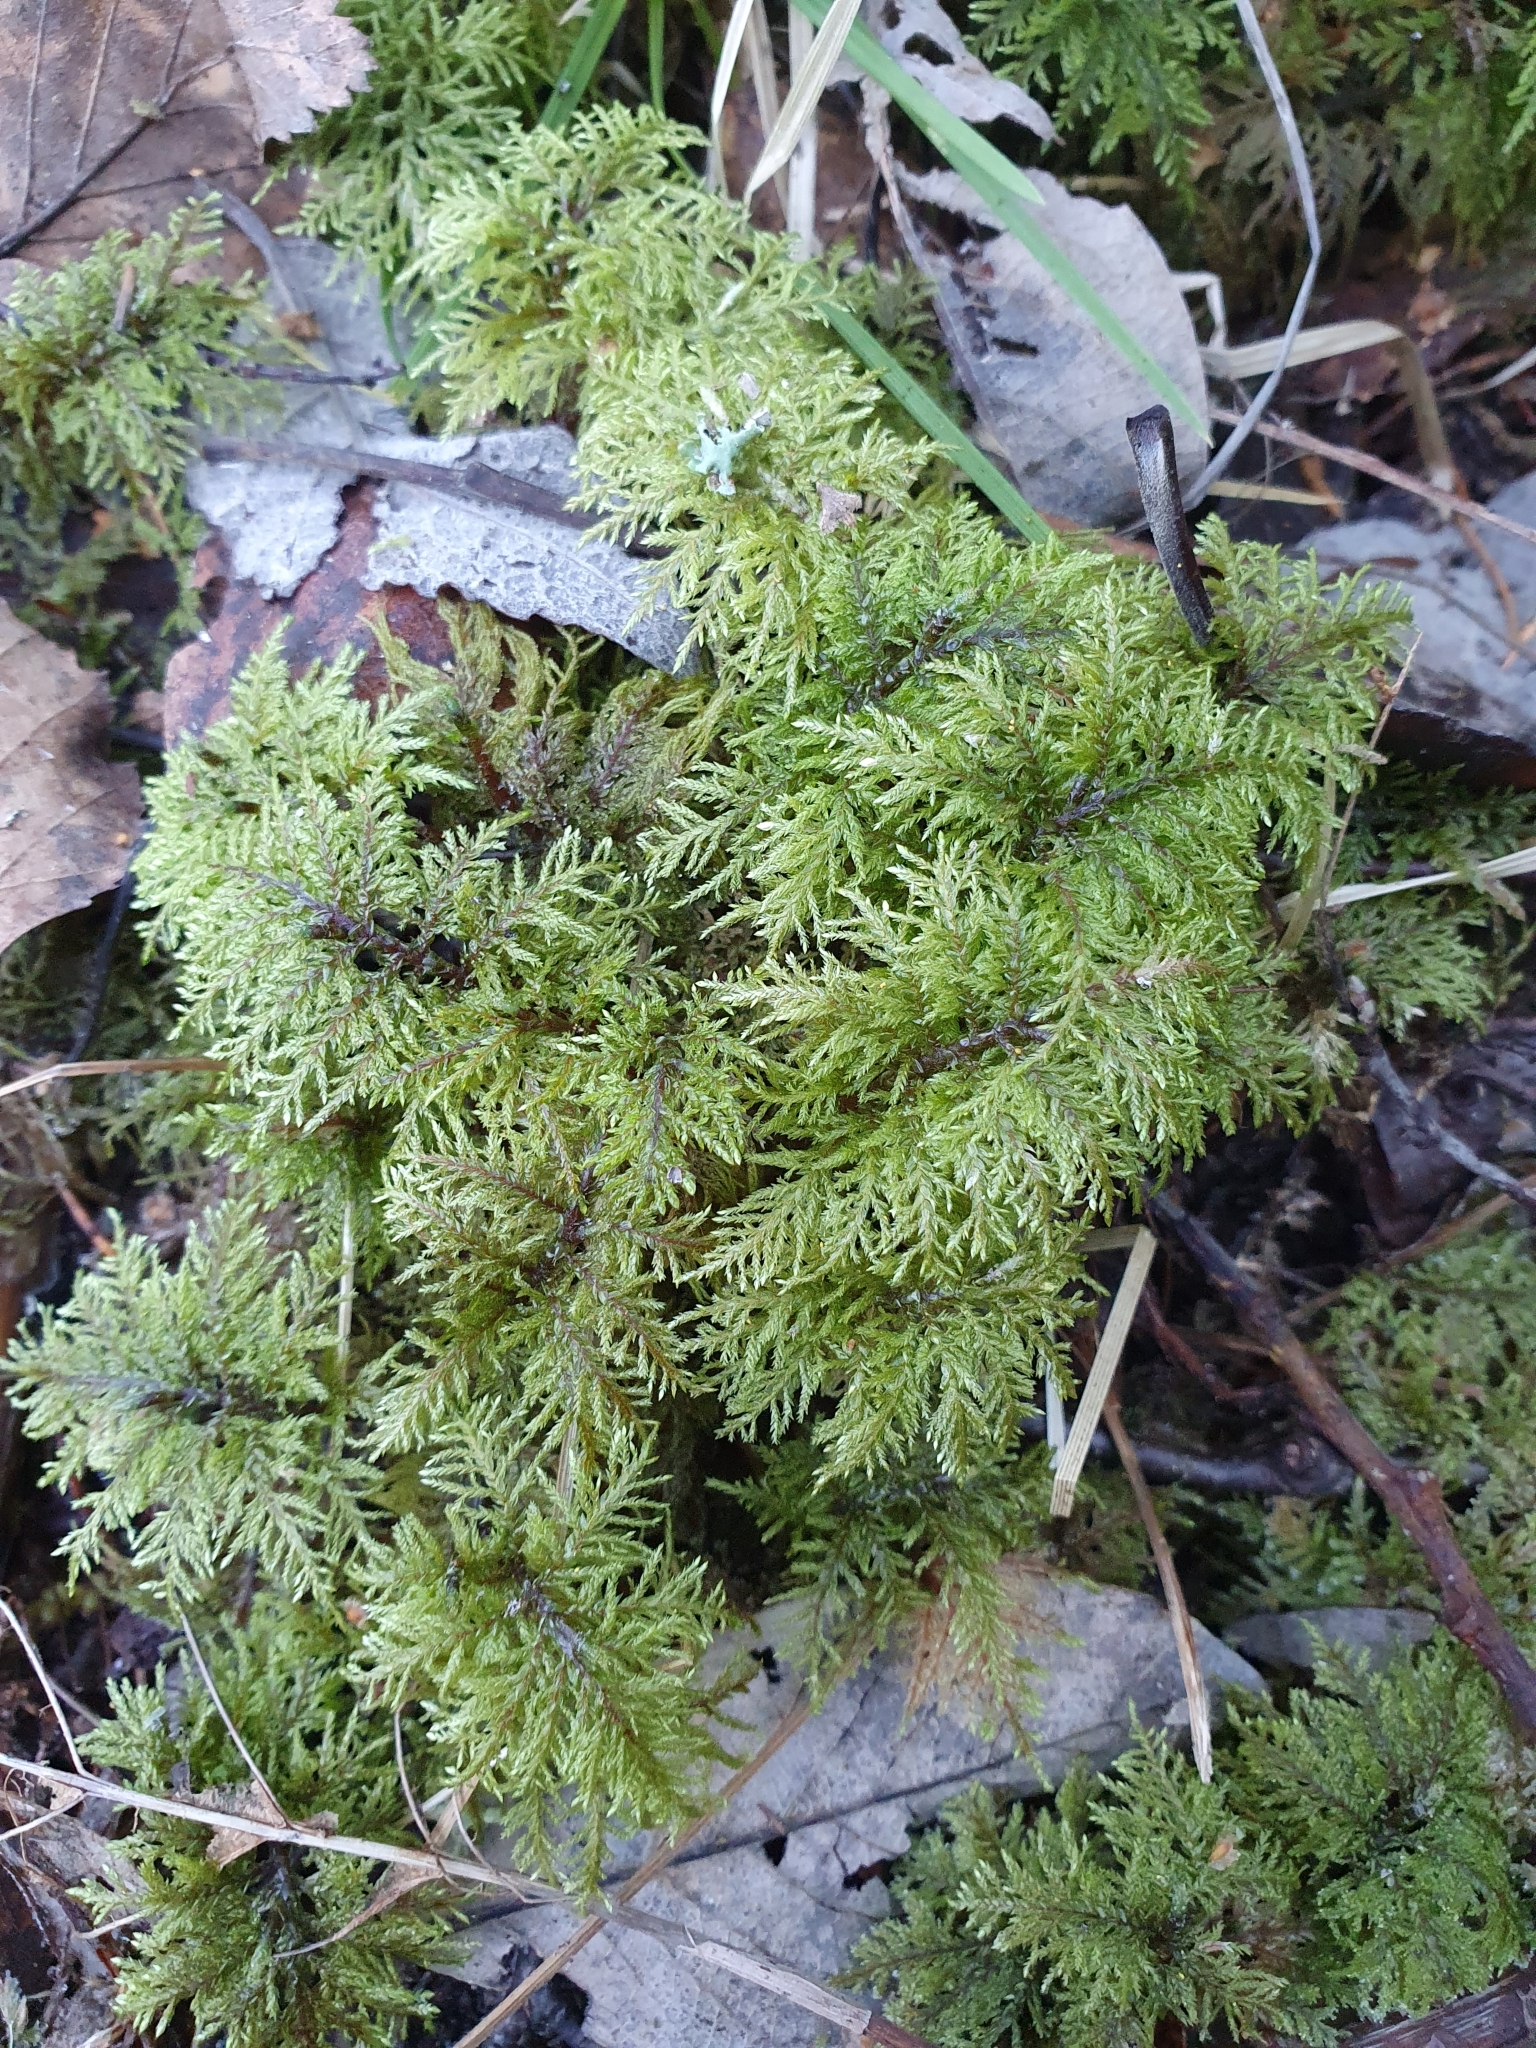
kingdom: Plantae
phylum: Bryophyta
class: Bryopsida
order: Hypnales
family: Hylocomiaceae
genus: Hylocomium
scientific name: Hylocomium splendens
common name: Stairstep moss
